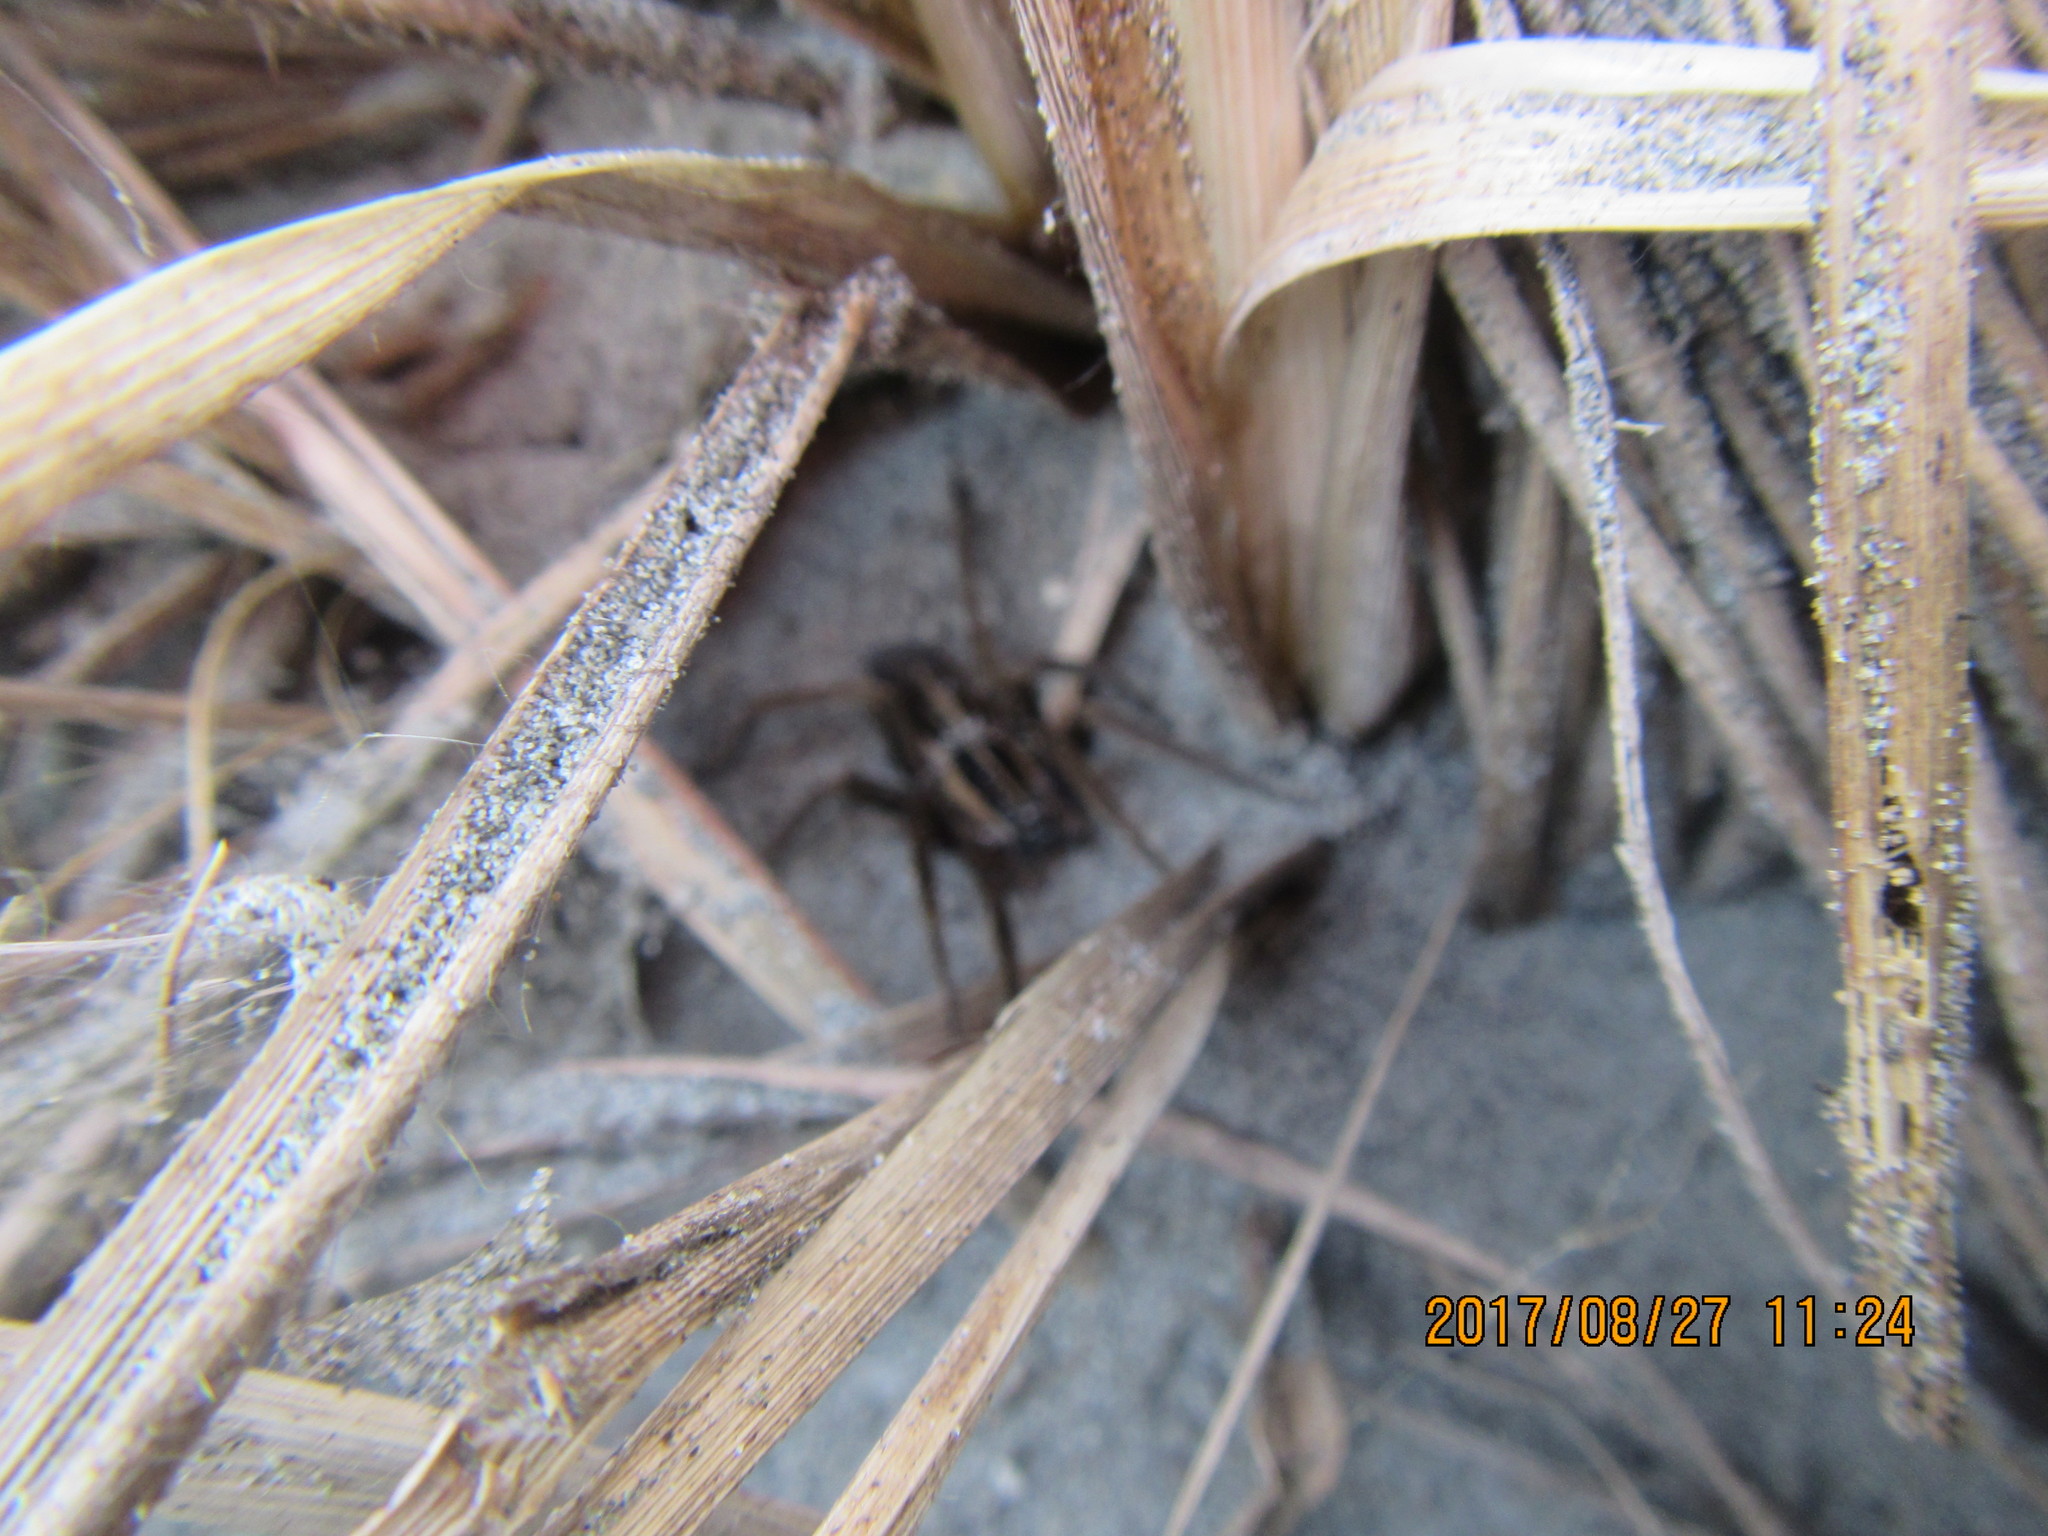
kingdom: Animalia
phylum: Arthropoda
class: Arachnida
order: Araneae
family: Pisauridae
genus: Dolomedes
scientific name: Dolomedes minor
